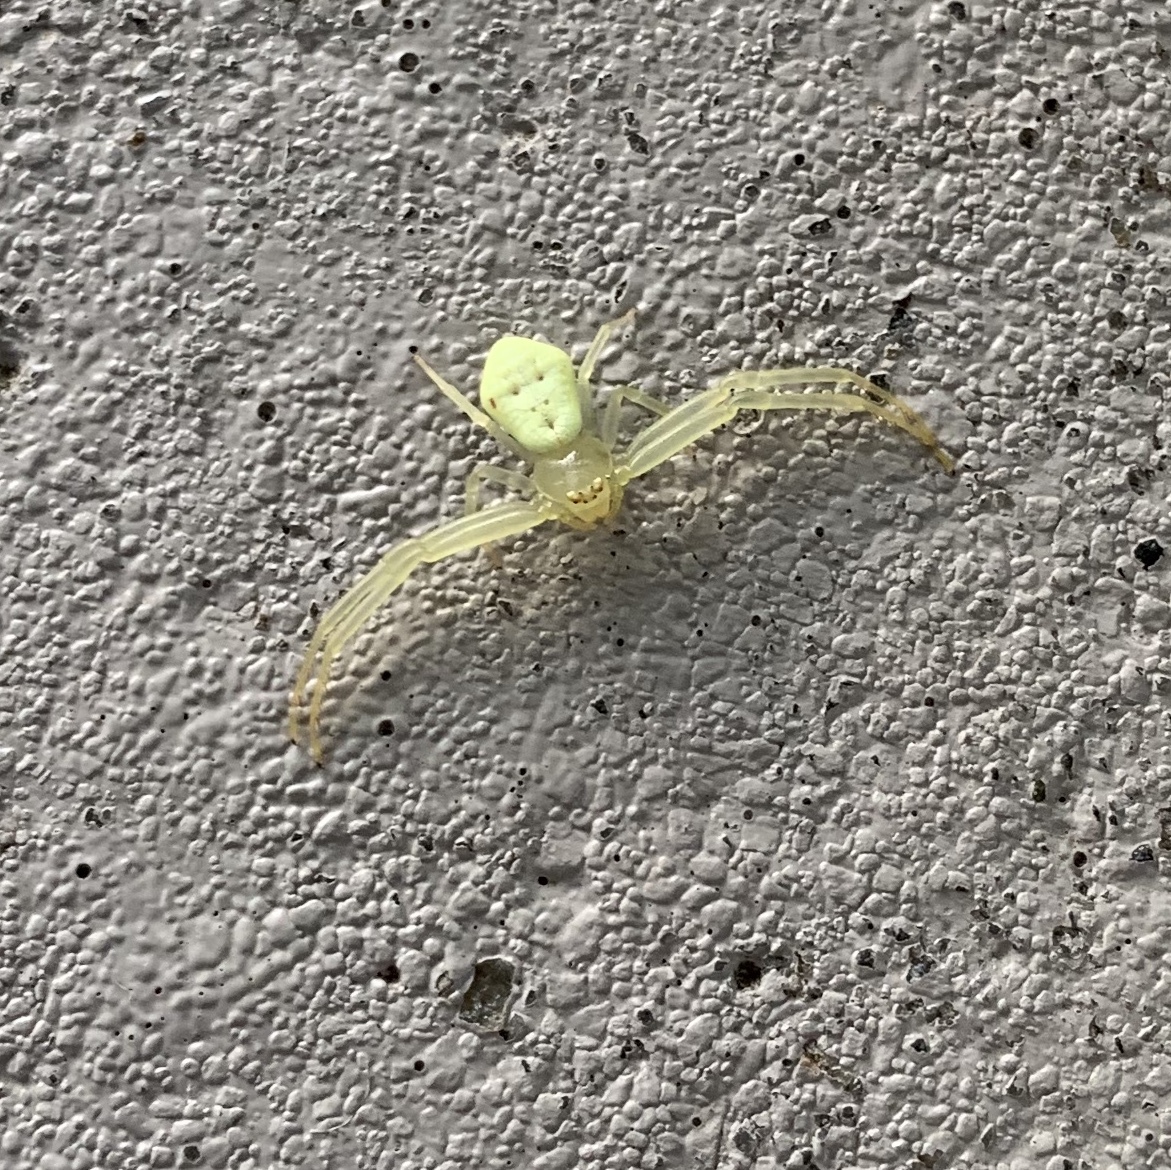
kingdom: Animalia
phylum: Arthropoda
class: Arachnida
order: Araneae
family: Thomisidae
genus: Misumessus
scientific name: Misumessus oblongus
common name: American green crab spider
